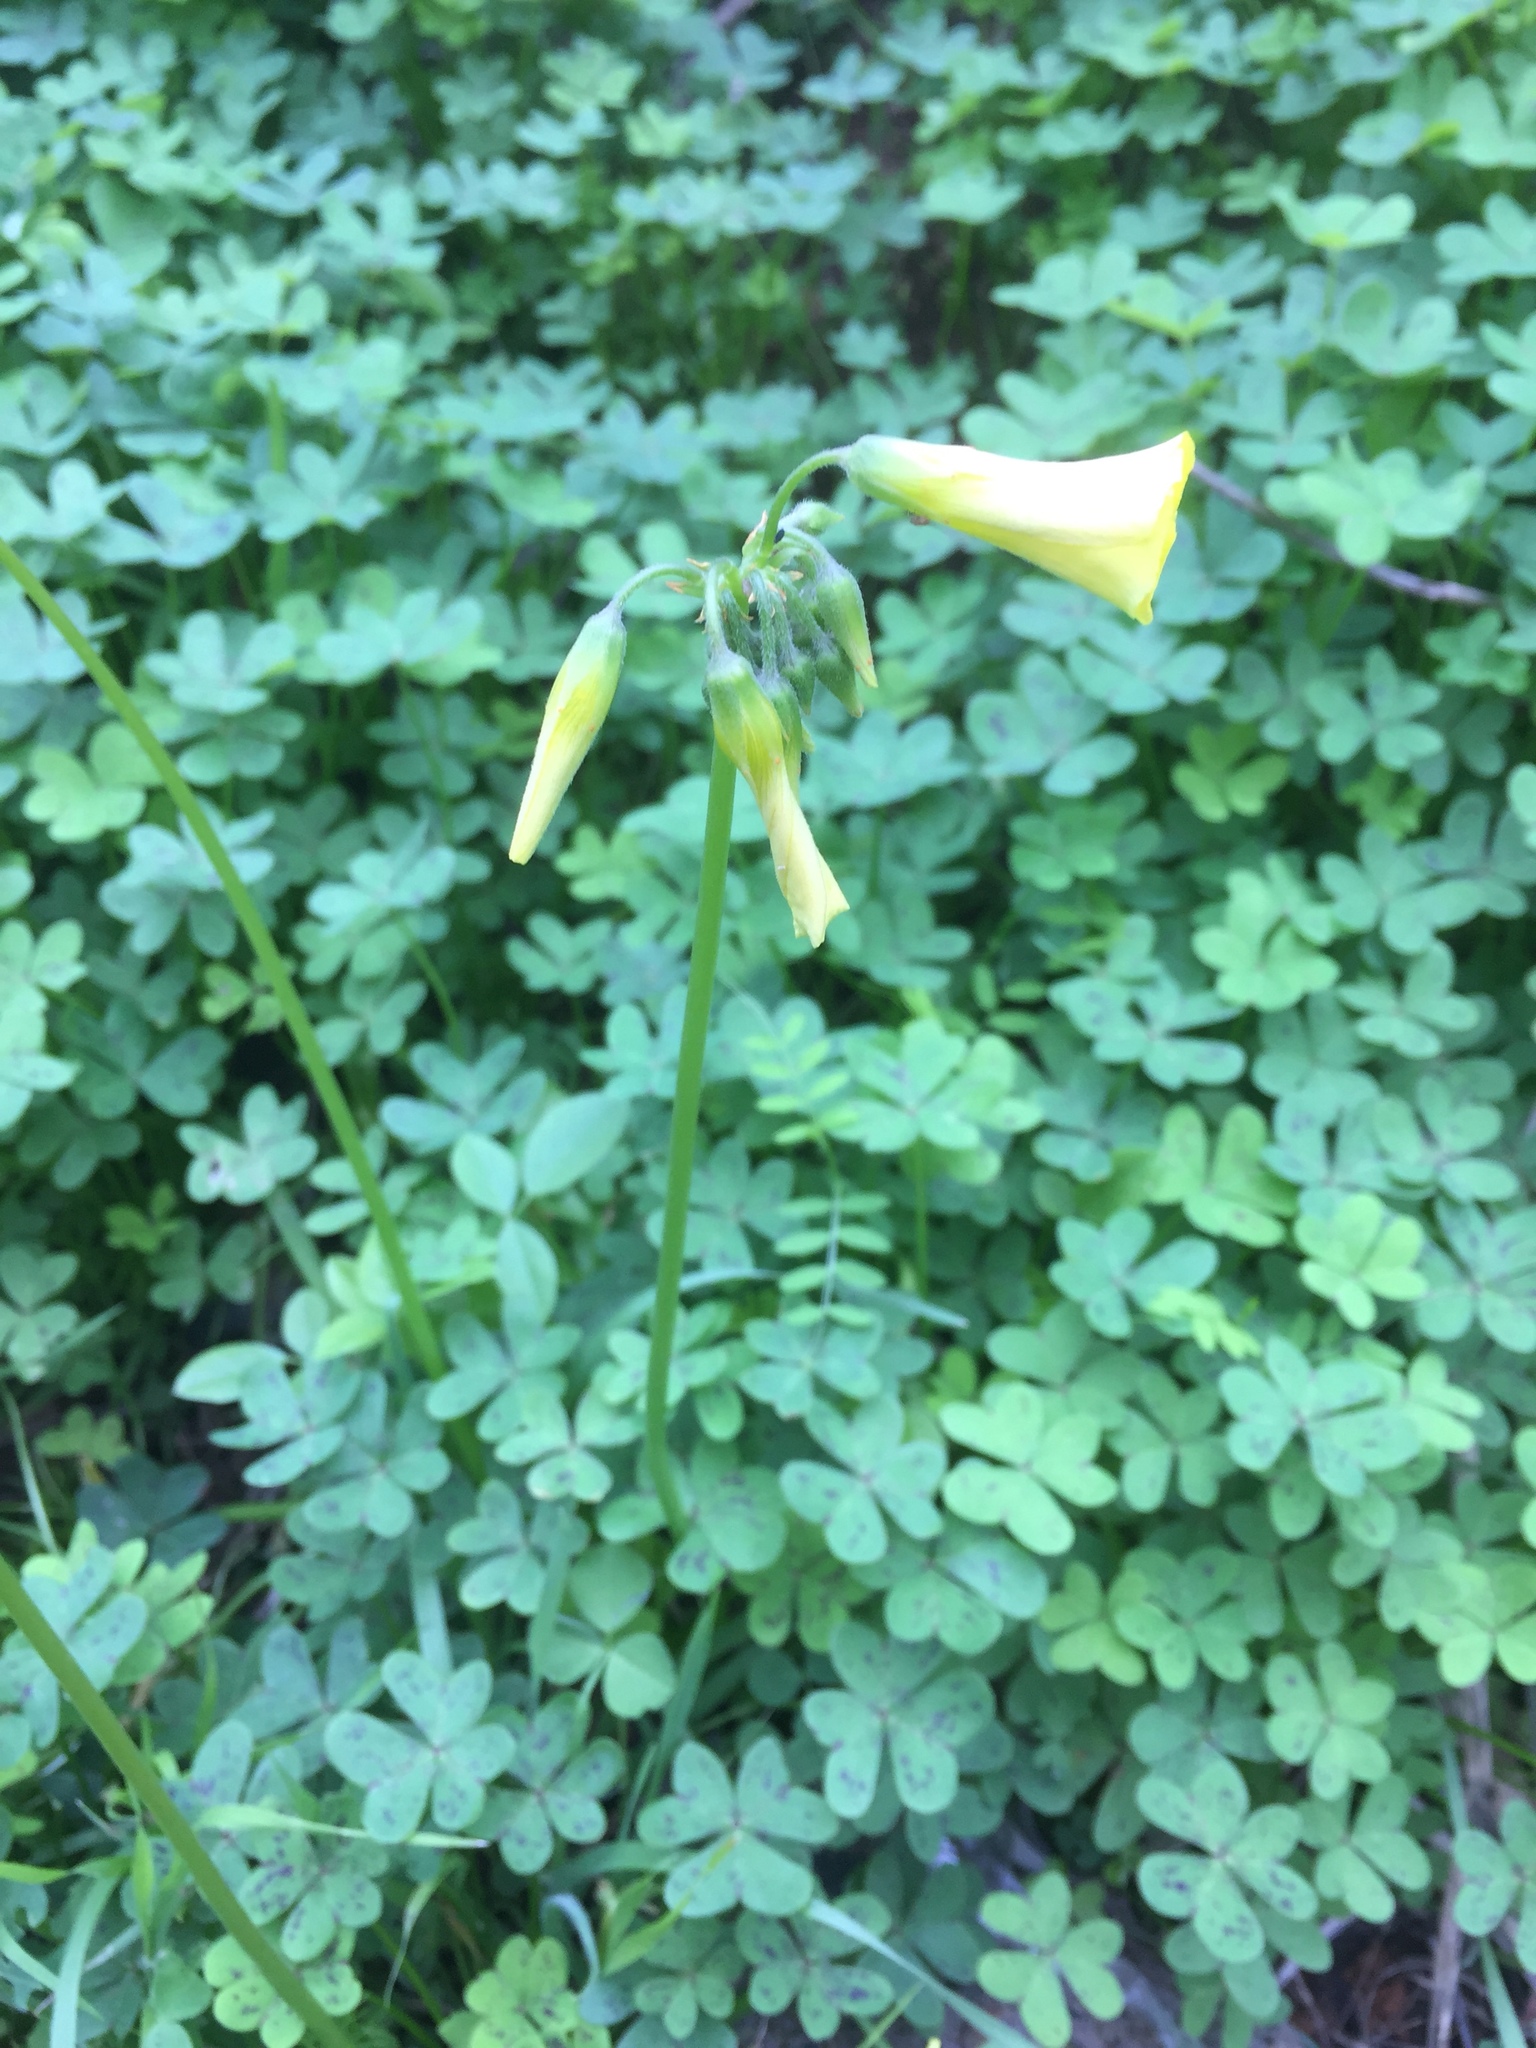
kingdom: Plantae
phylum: Tracheophyta
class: Magnoliopsida
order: Oxalidales
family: Oxalidaceae
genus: Oxalis
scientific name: Oxalis pes-caprae
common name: Bermuda-buttercup
